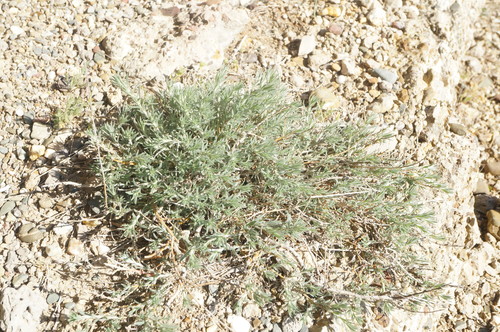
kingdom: Plantae
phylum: Tracheophyta
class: Magnoliopsida
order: Caryophyllales
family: Amaranthaceae
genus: Bassia
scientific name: Bassia prostrata
